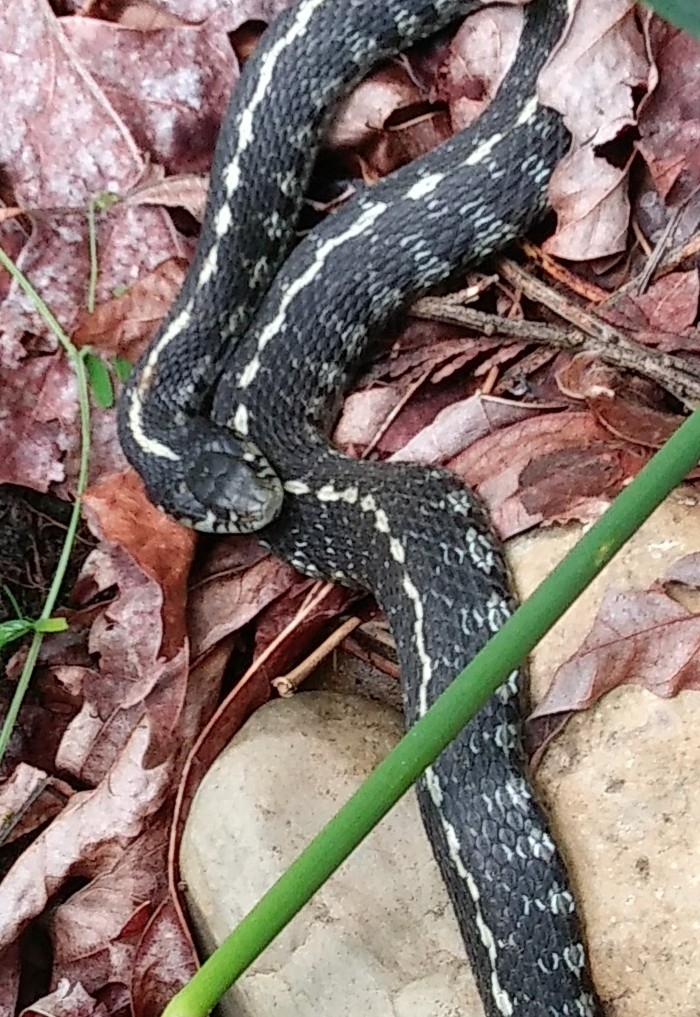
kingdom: Animalia
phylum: Chordata
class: Squamata
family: Colubridae
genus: Thamnophis
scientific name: Thamnophis elegans
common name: Western terrestrial garter snake
